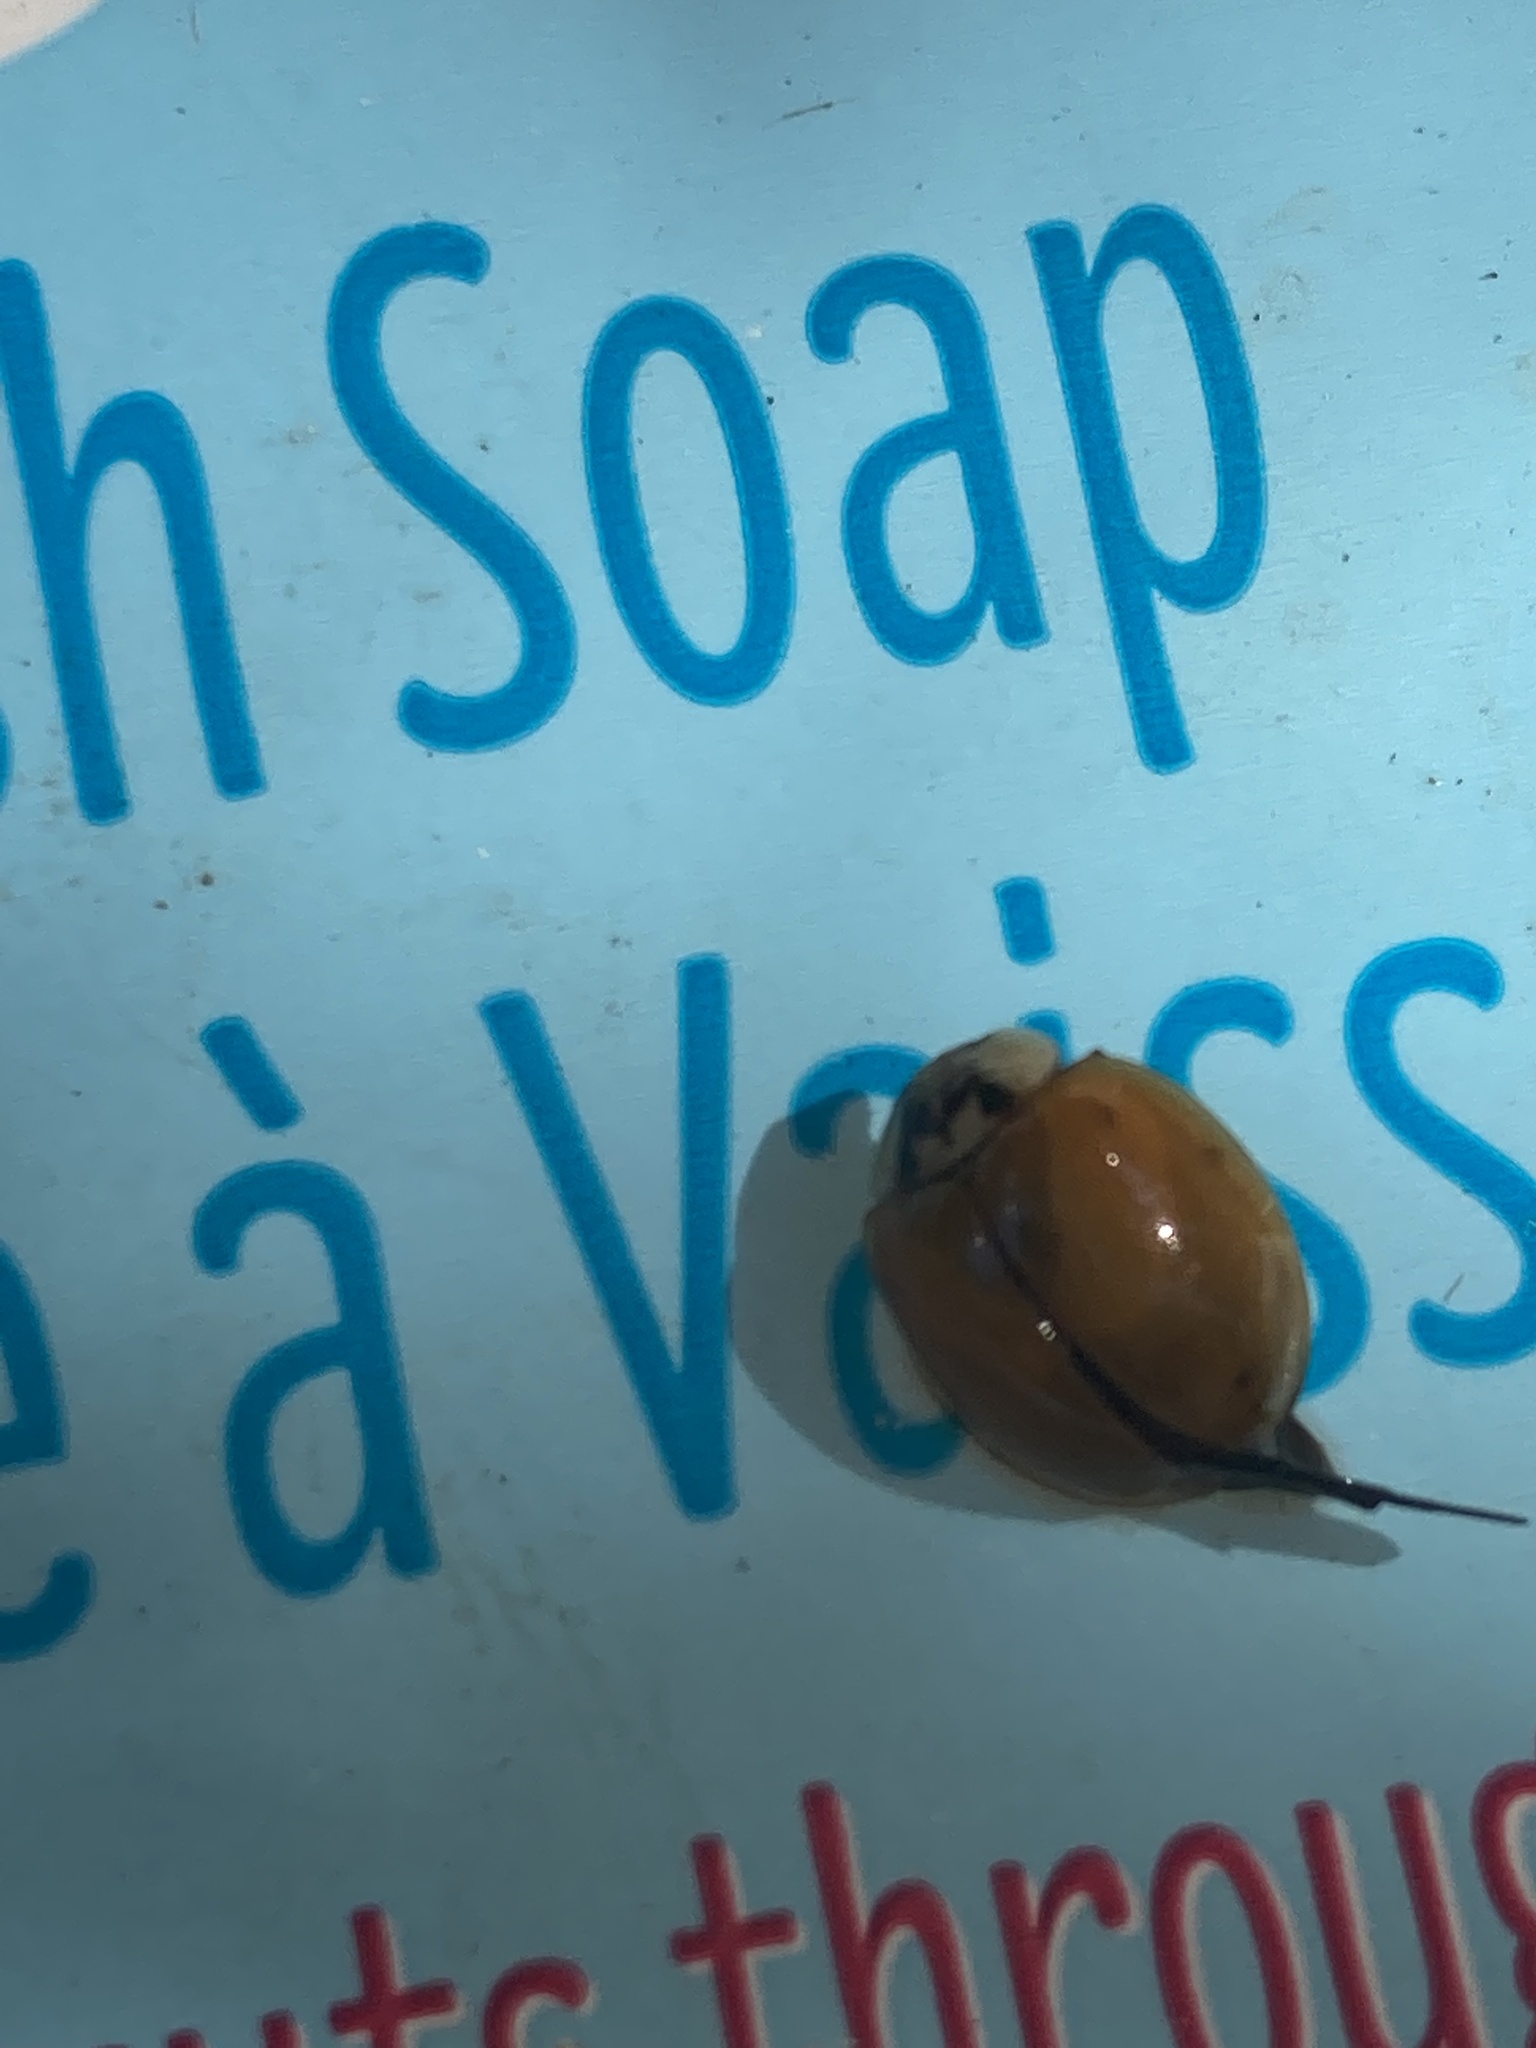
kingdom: Animalia
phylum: Arthropoda
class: Insecta
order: Coleoptera
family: Coccinellidae
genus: Harmonia
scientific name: Harmonia axyridis
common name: Harlequin ladybird
